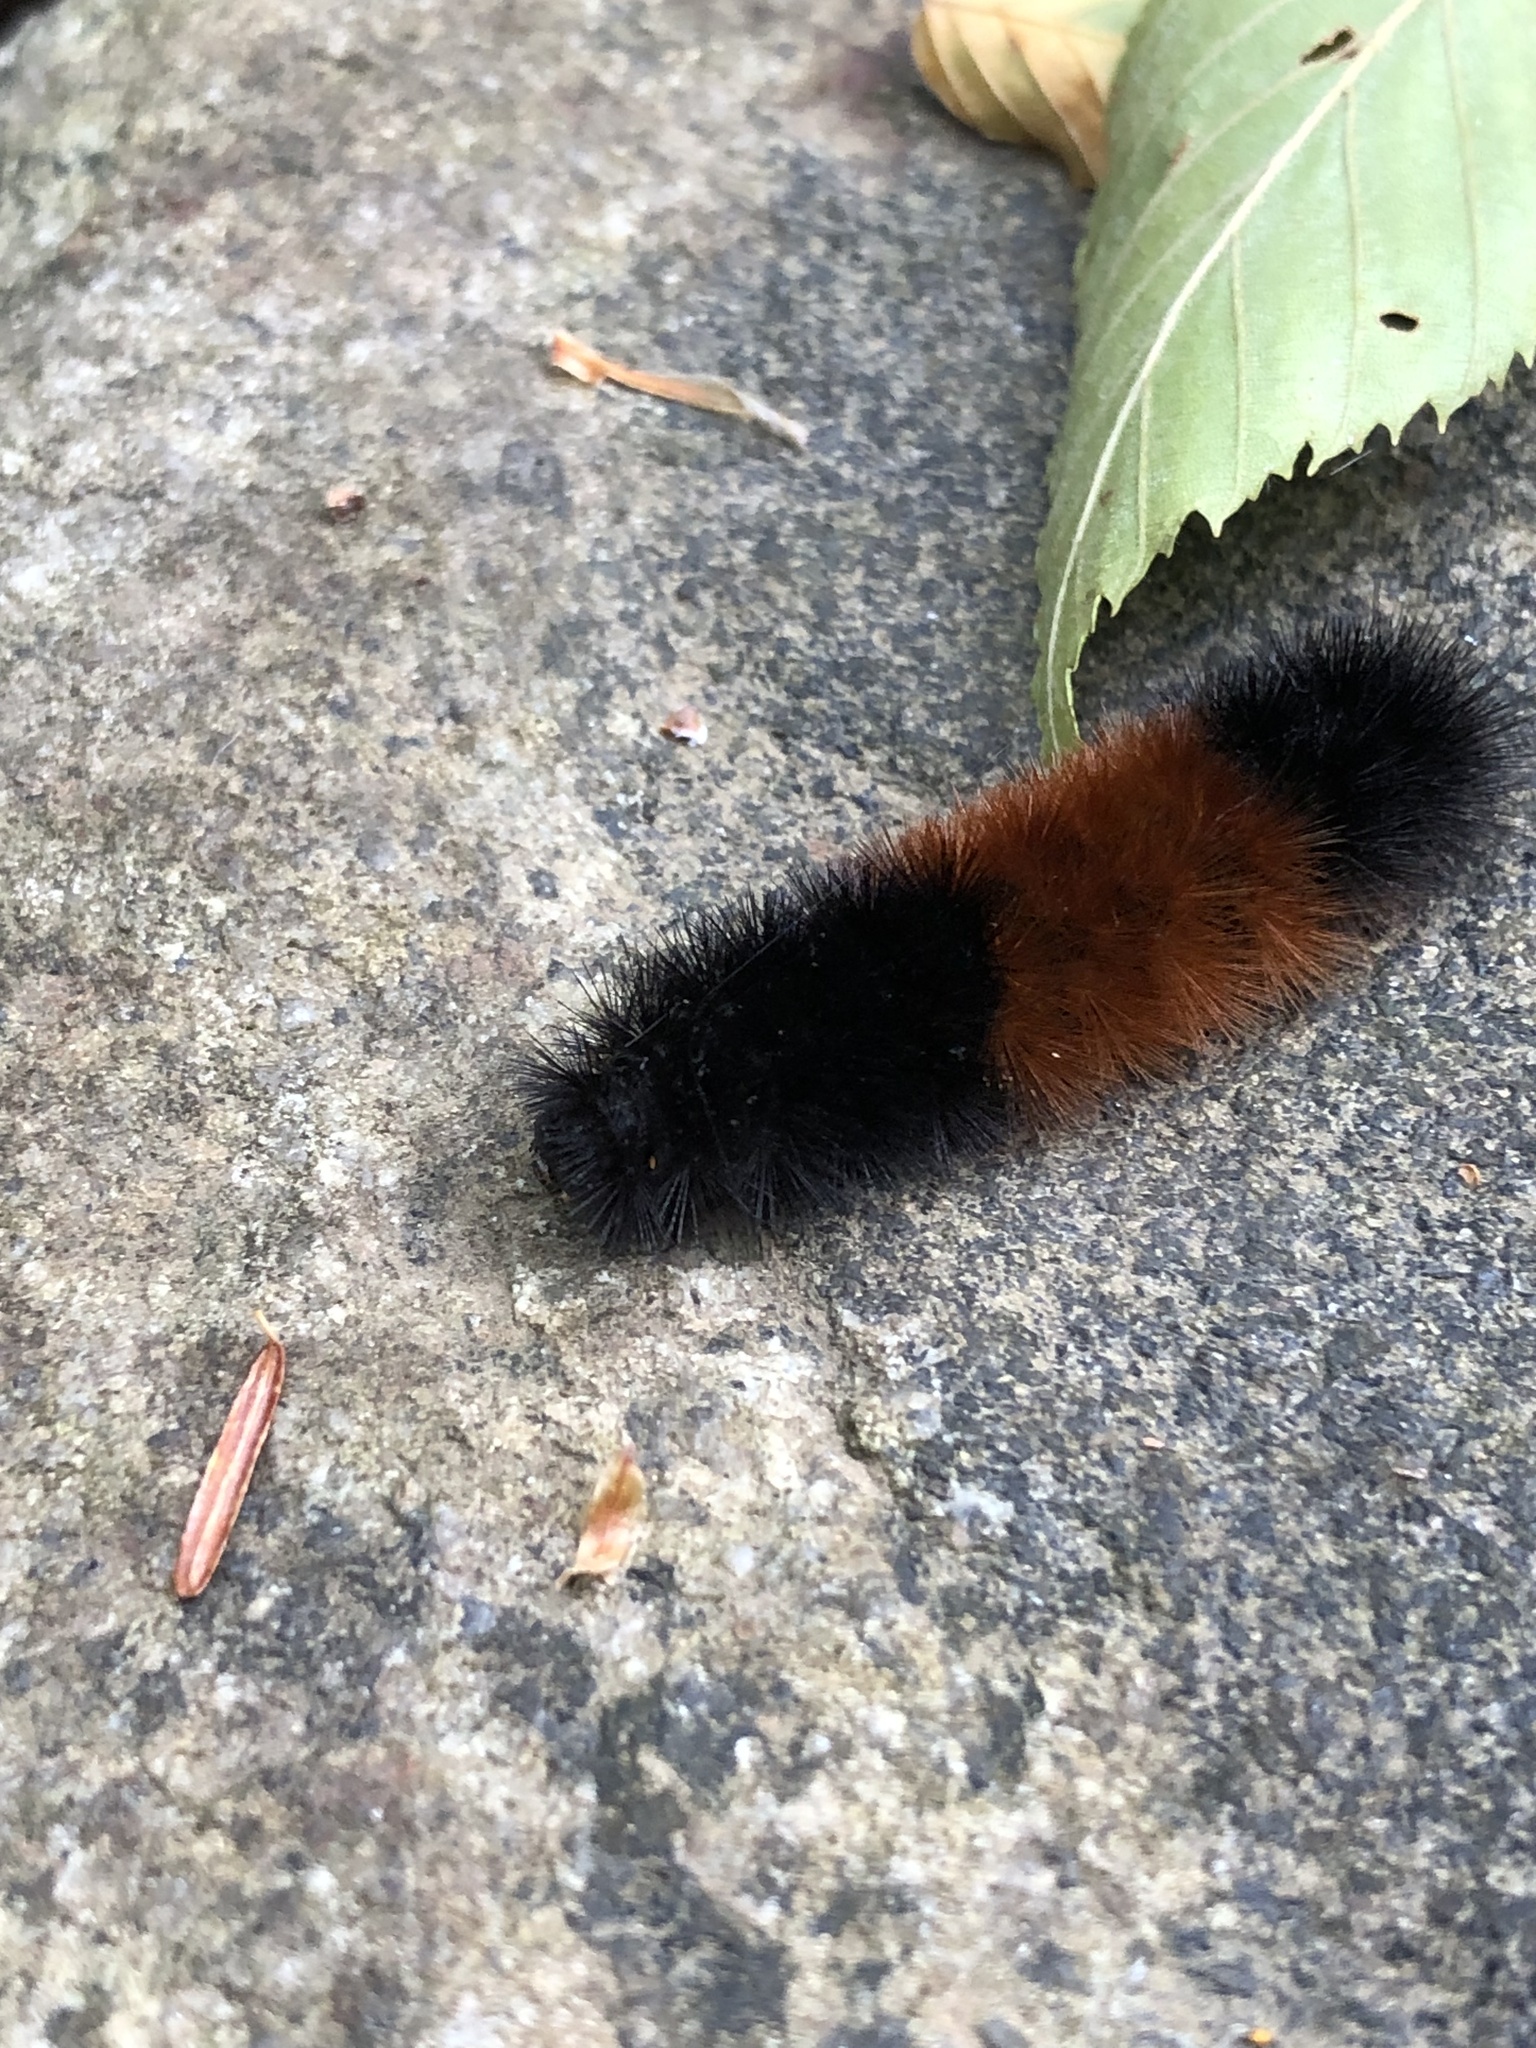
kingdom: Animalia
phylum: Arthropoda
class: Insecta
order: Lepidoptera
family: Erebidae
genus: Pyrrharctia
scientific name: Pyrrharctia isabella
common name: Isabella tiger moth
